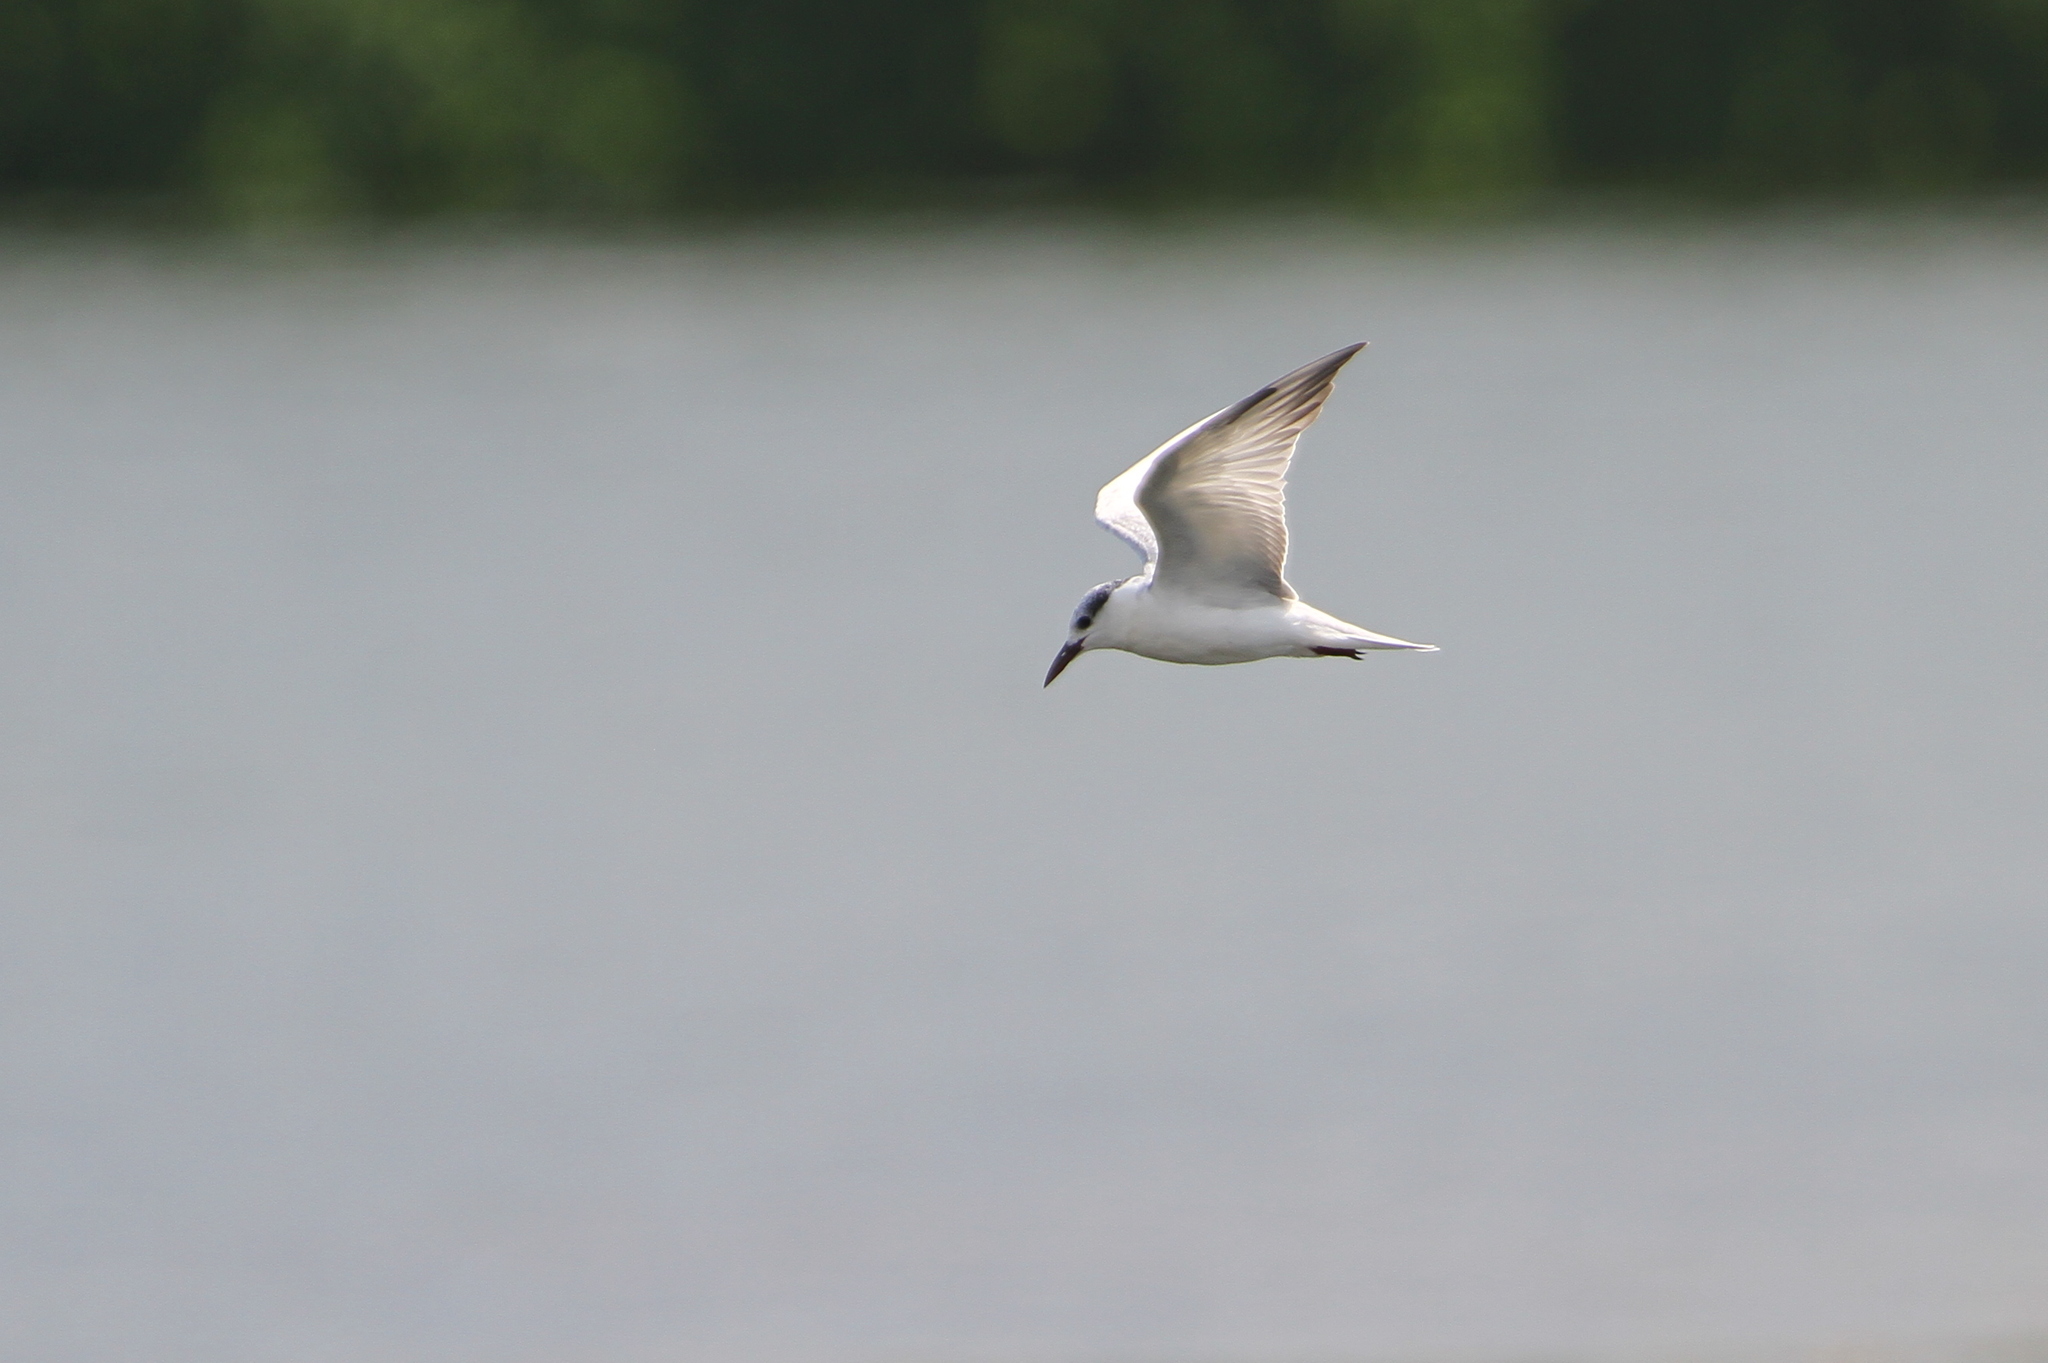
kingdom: Animalia
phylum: Chordata
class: Aves
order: Charadriiformes
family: Laridae
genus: Chlidonias
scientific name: Chlidonias hybrida
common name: Whiskered tern
